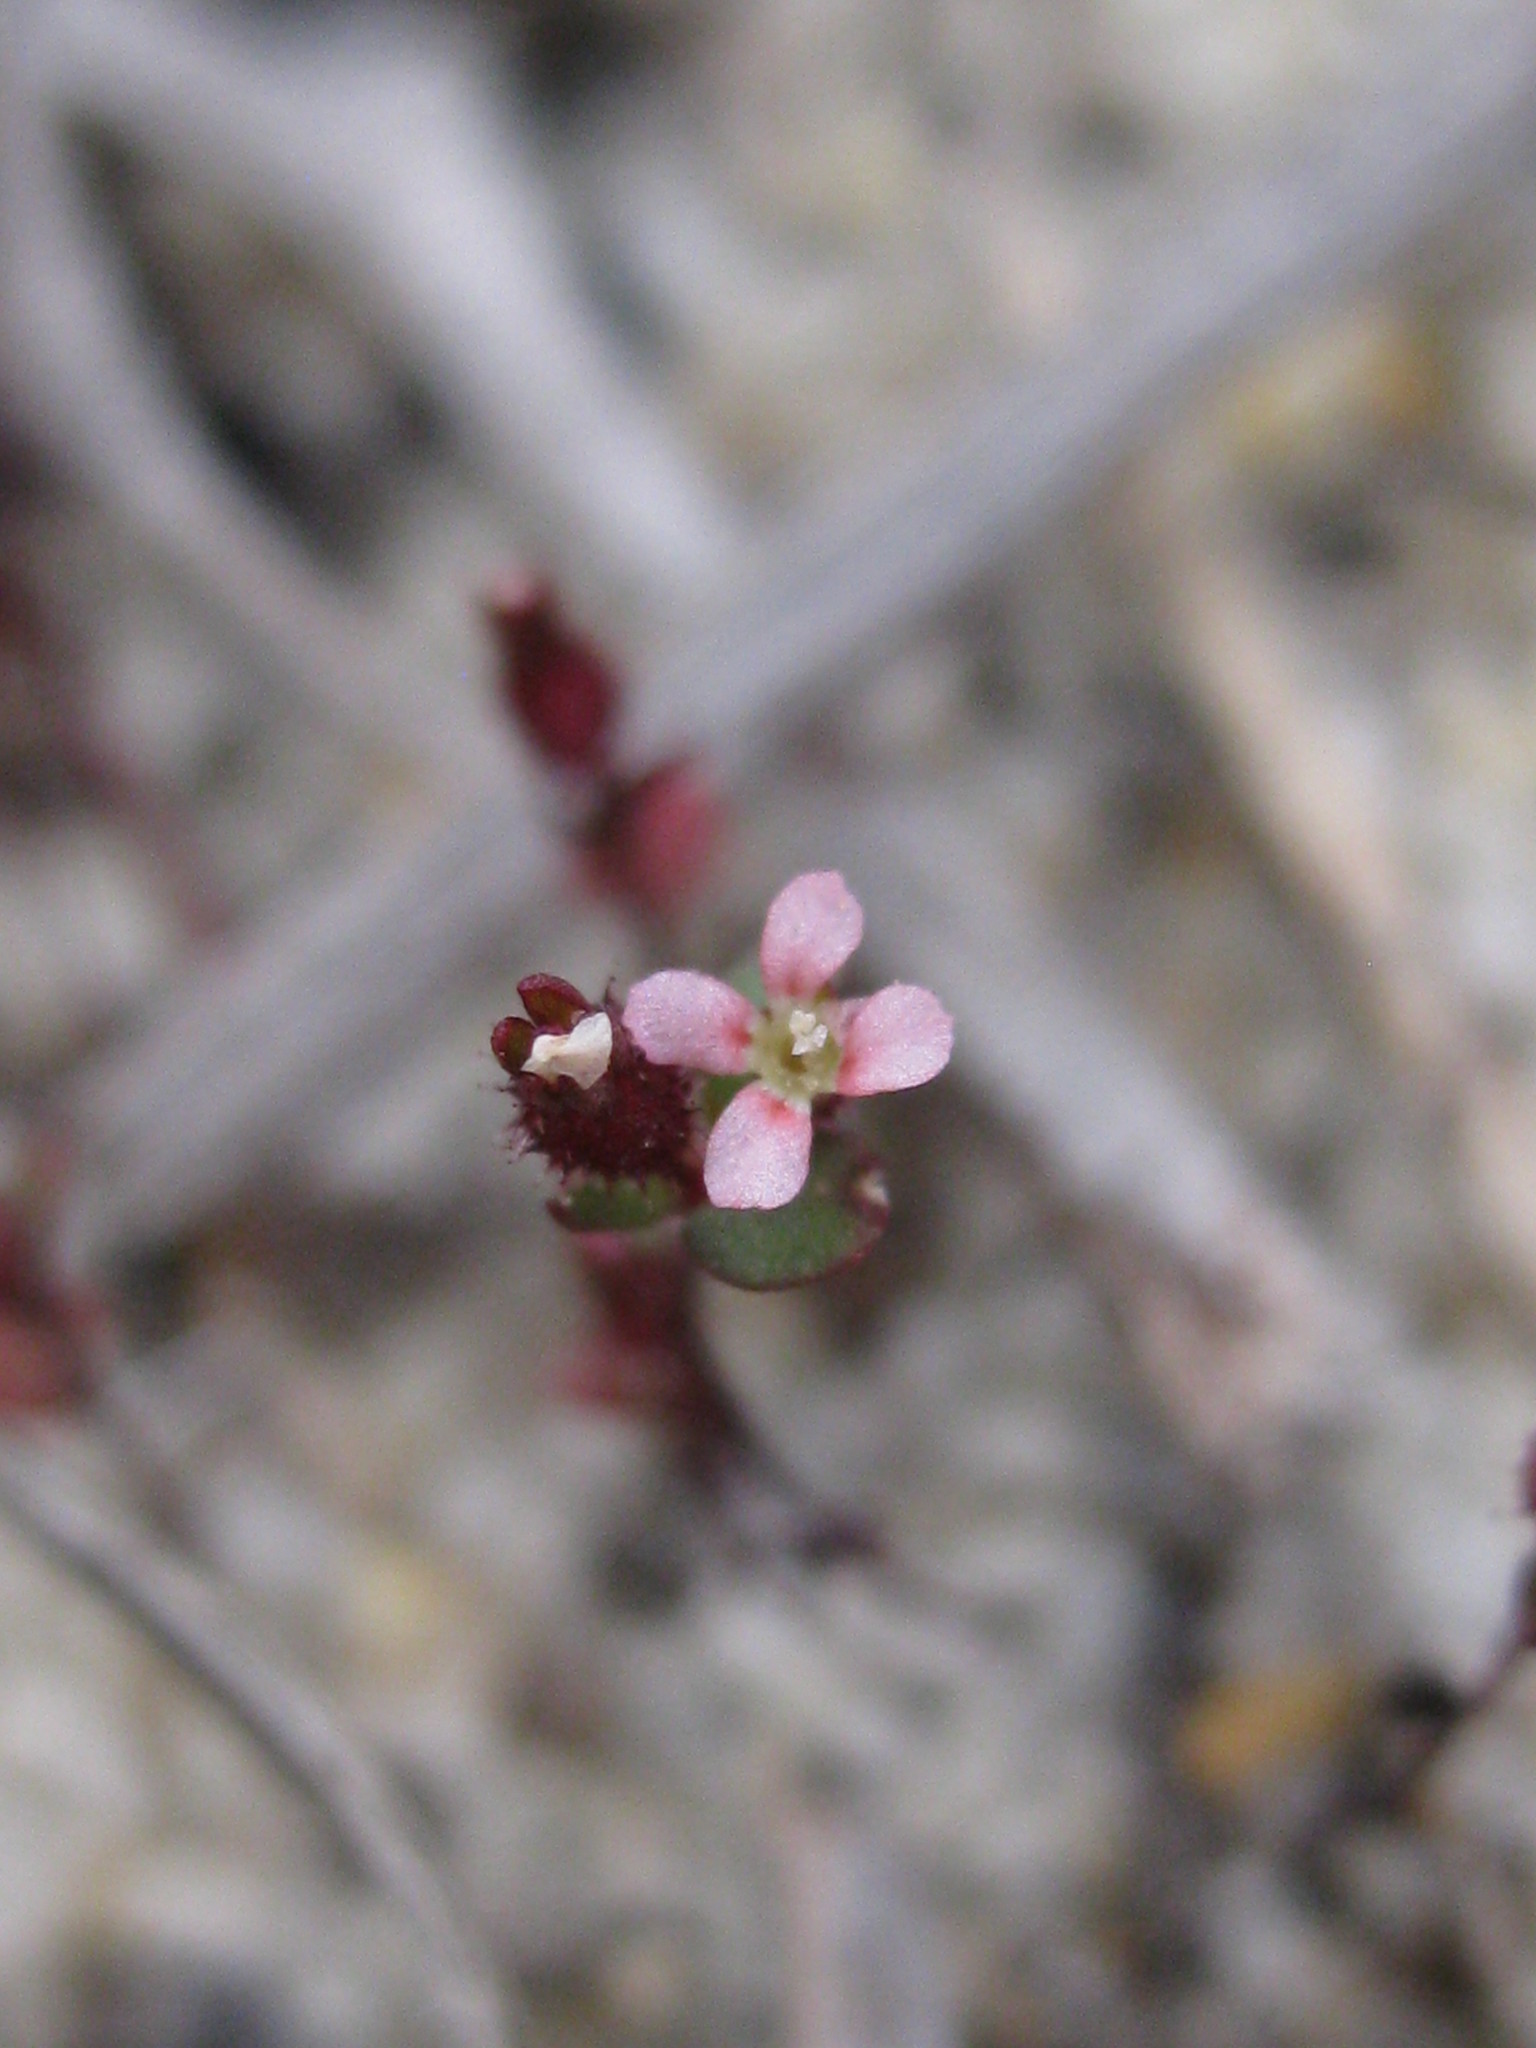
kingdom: Plantae
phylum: Tracheophyta
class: Magnoliopsida
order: Asterales
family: Stylidiaceae
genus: Levenhookia
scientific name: Levenhookia murfetii
